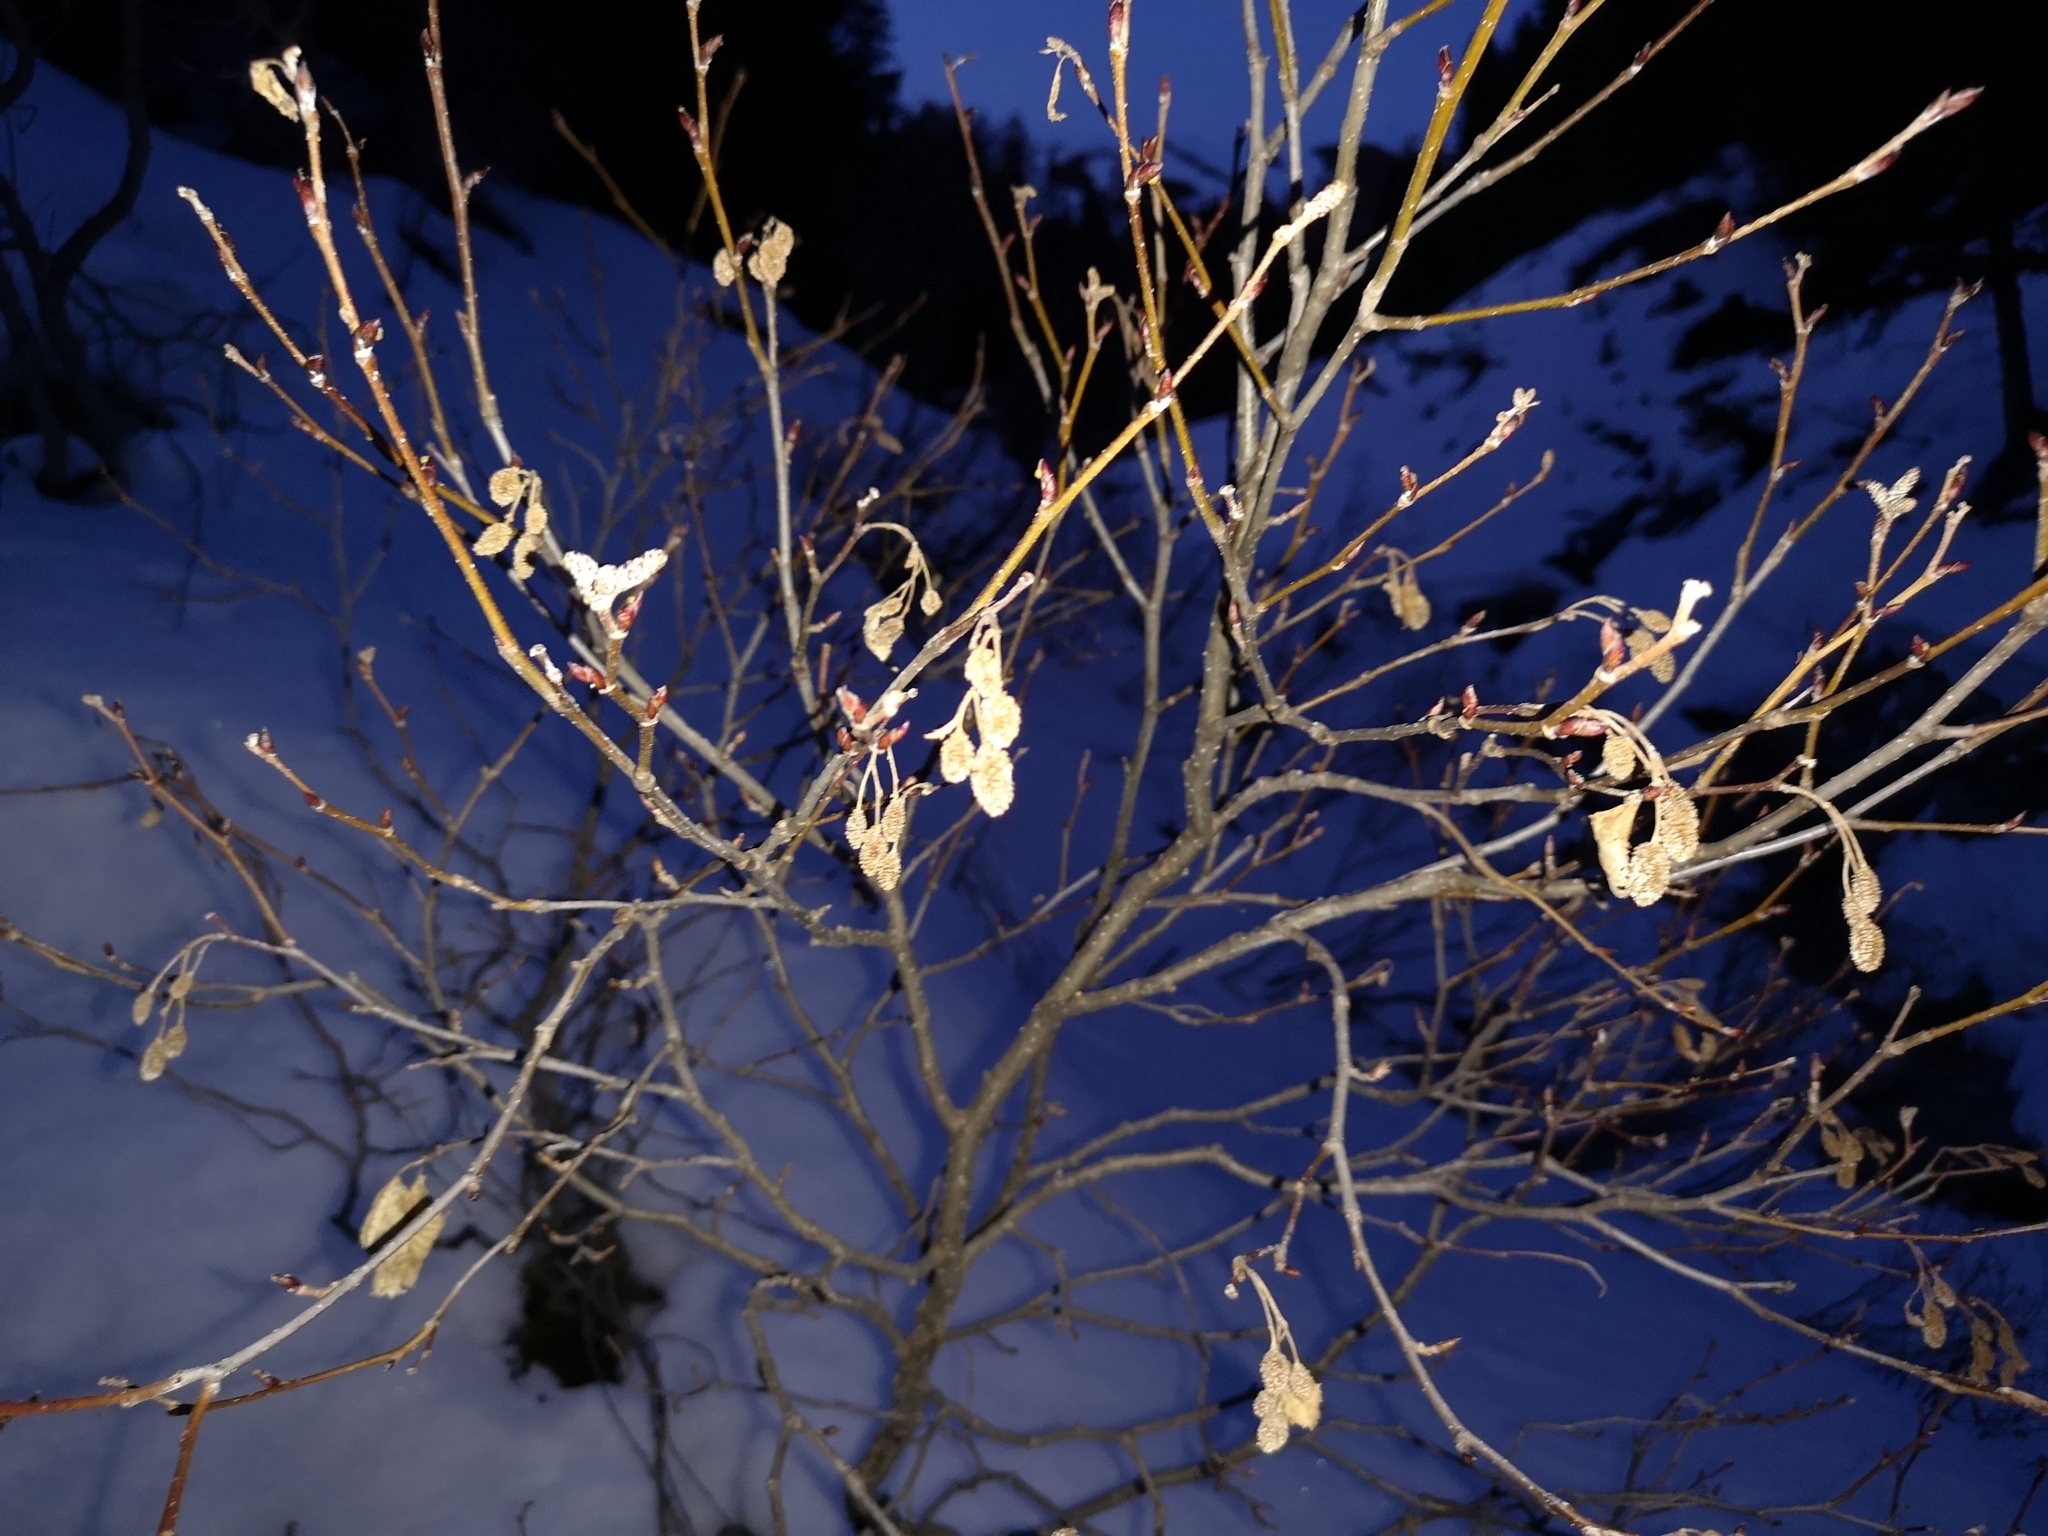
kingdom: Plantae
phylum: Tracheophyta
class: Magnoliopsida
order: Fagales
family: Betulaceae
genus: Alnus
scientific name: Alnus alnobetula
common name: Green alder
